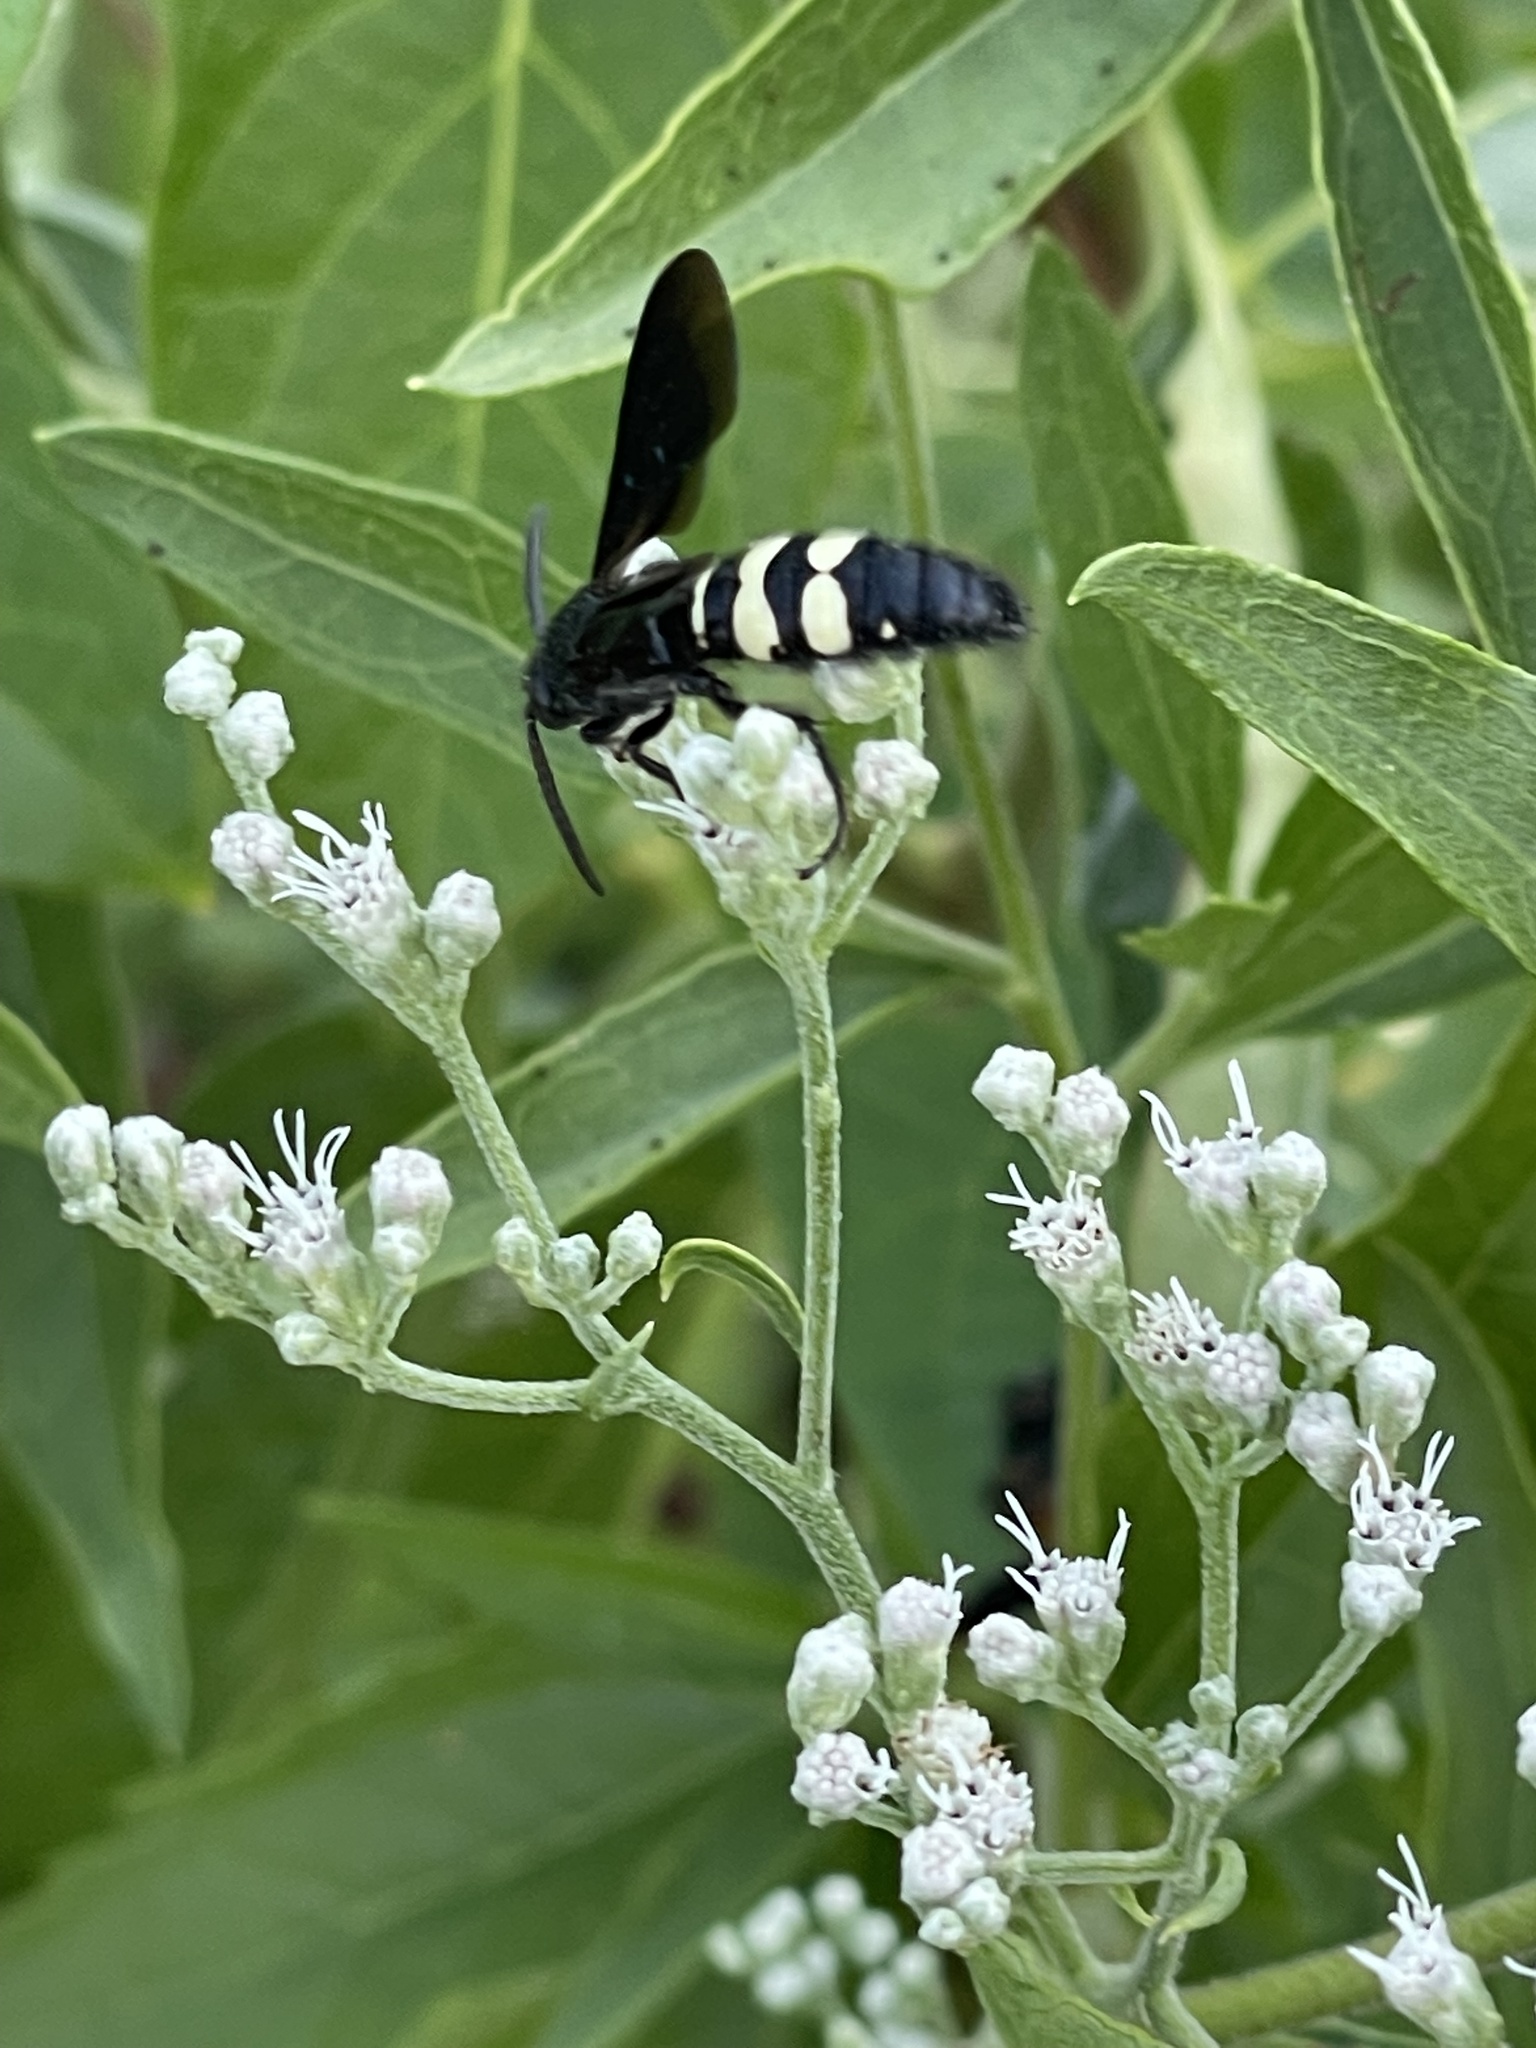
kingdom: Animalia
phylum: Arthropoda
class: Insecta
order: Hymenoptera
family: Scoliidae
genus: Scolia
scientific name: Scolia bicincta
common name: Double-banded scoliid wasp
